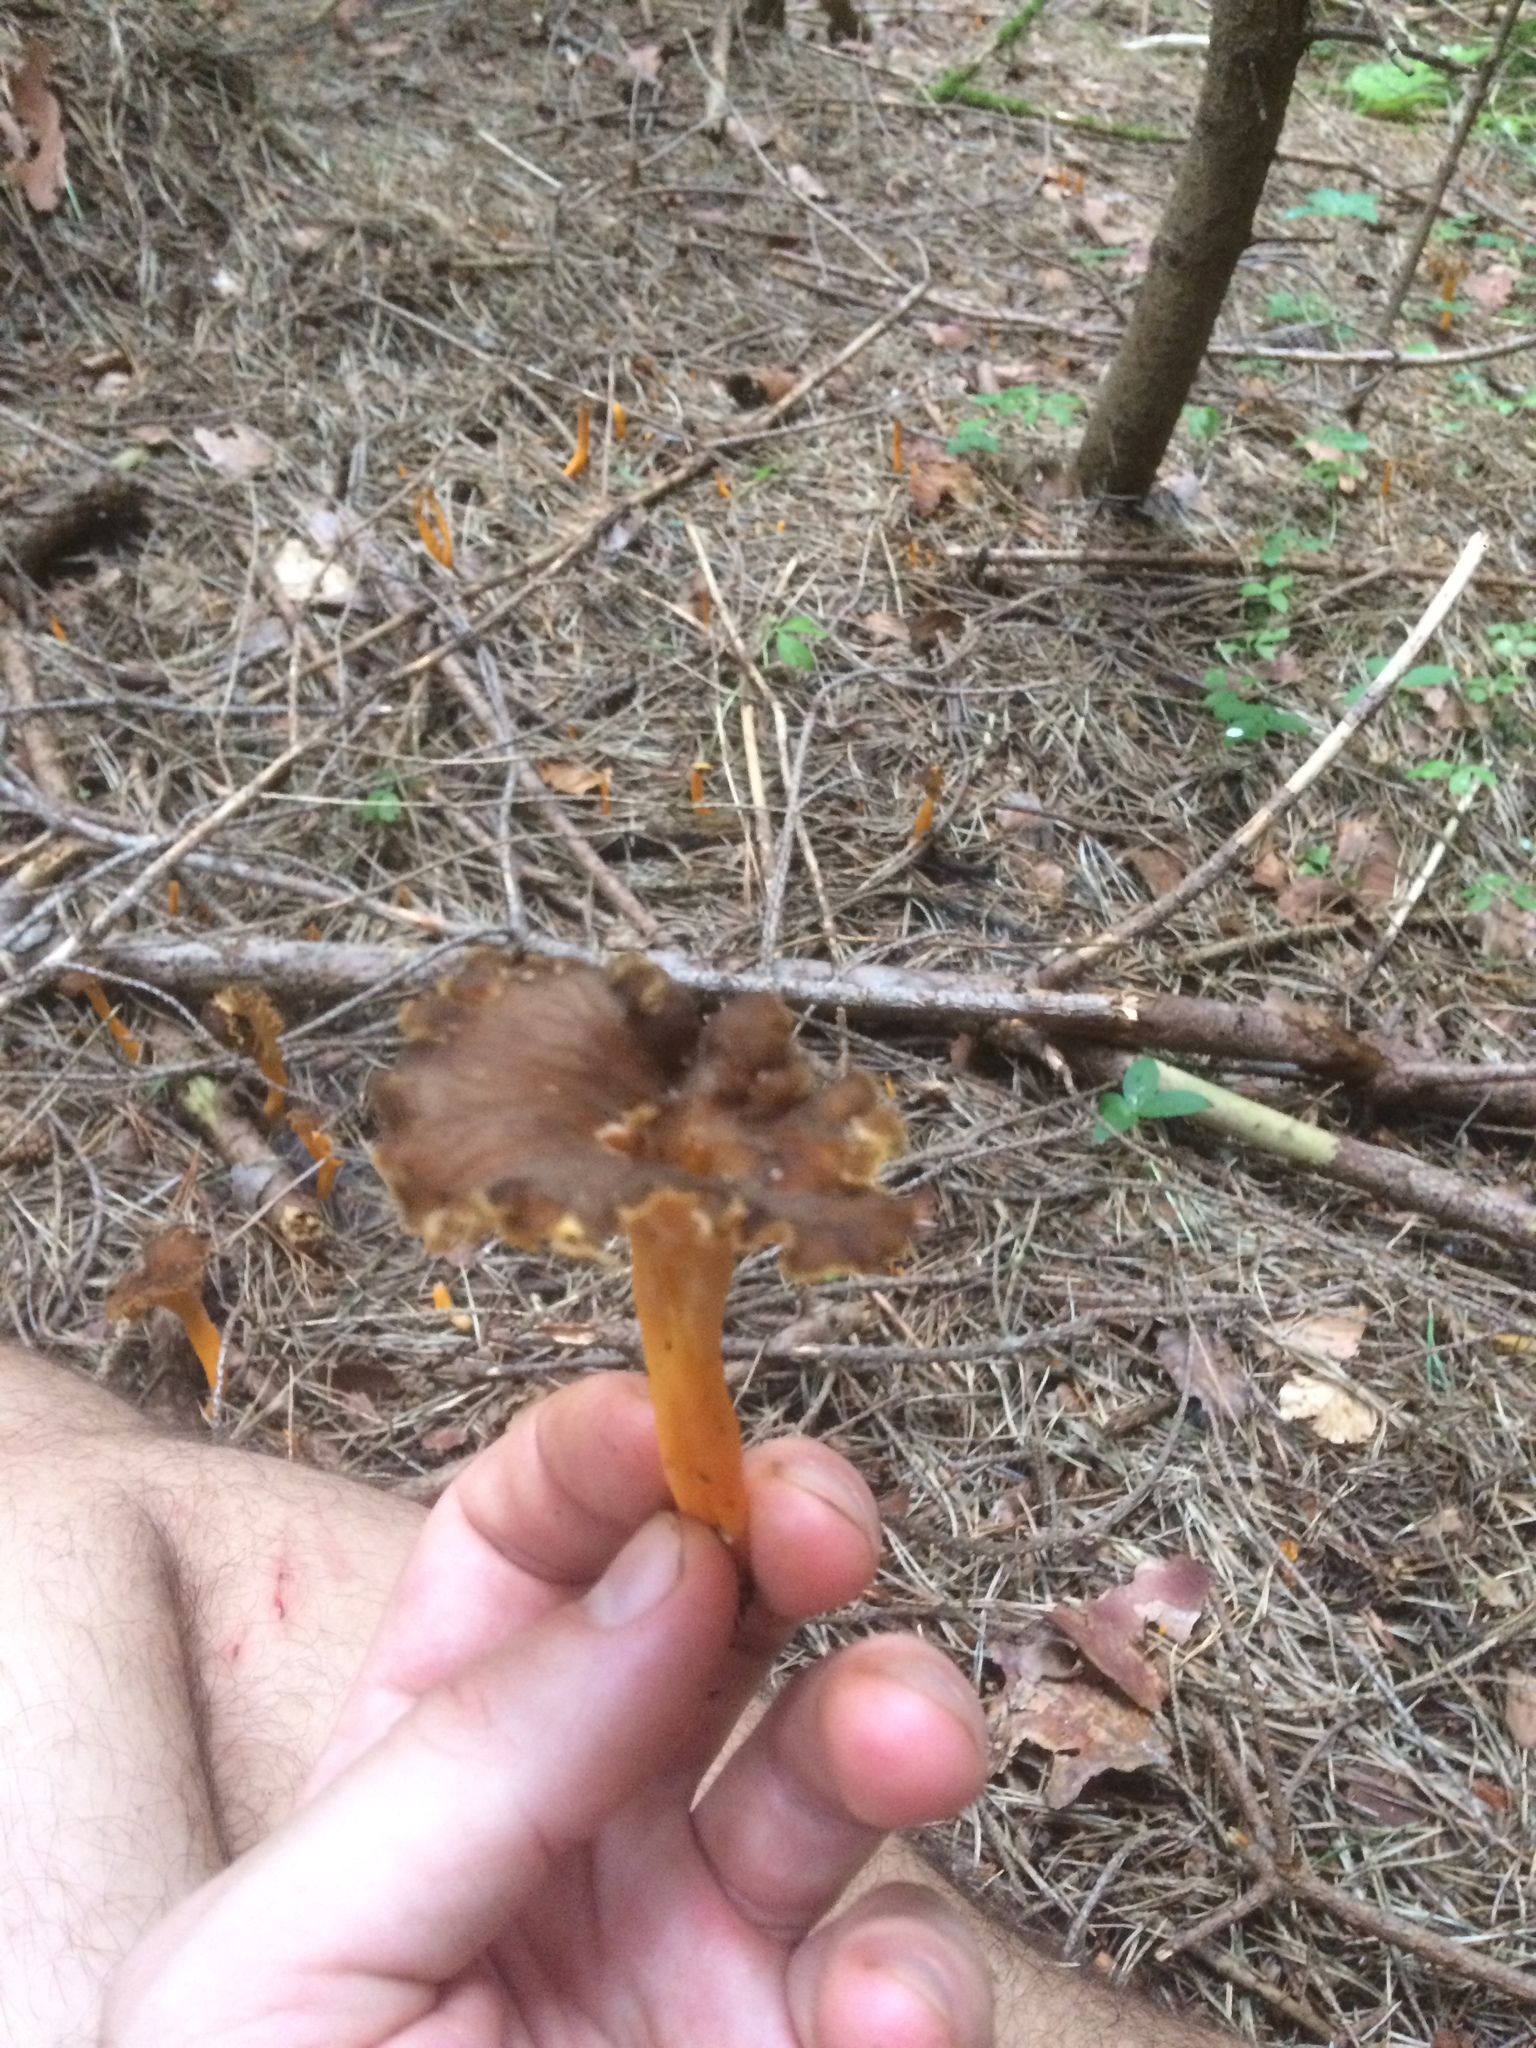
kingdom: Fungi
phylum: Basidiomycota
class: Agaricomycetes
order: Cantharellales
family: Hydnaceae
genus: Craterellus
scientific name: Craterellus lutescens
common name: Golden chanterelle
